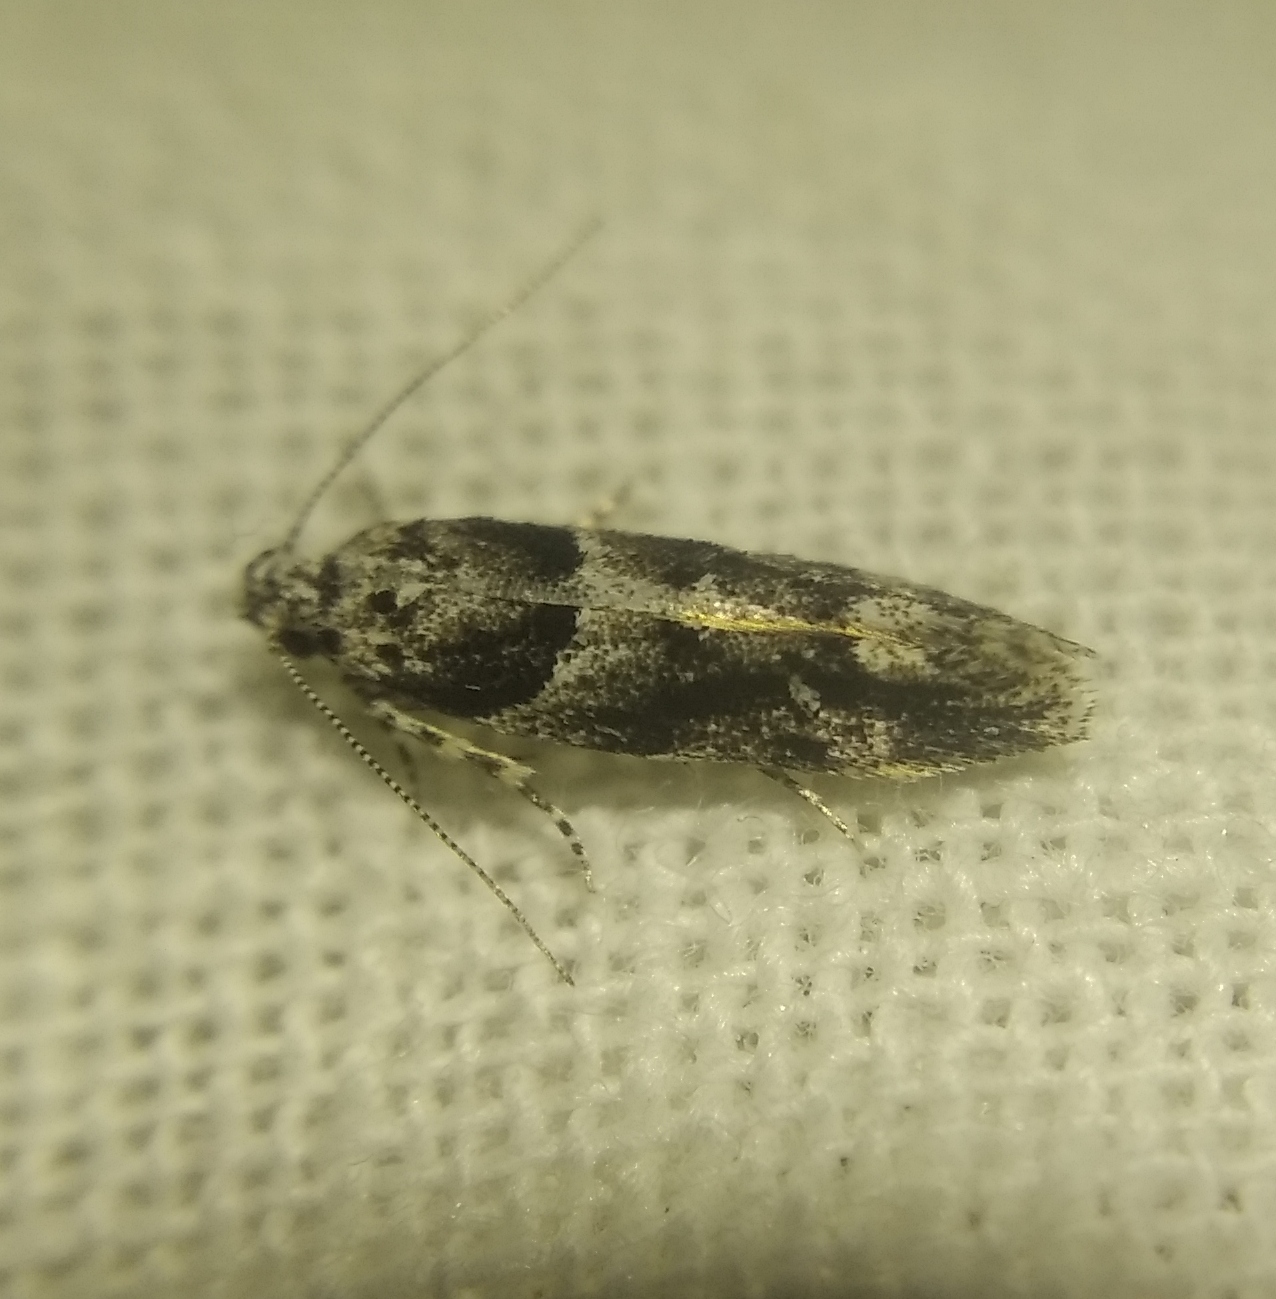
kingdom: Animalia
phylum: Arthropoda
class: Insecta
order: Lepidoptera
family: Gelechiidae
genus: Recurvaria
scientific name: Recurvaria nanella
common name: Gelechiid moth
